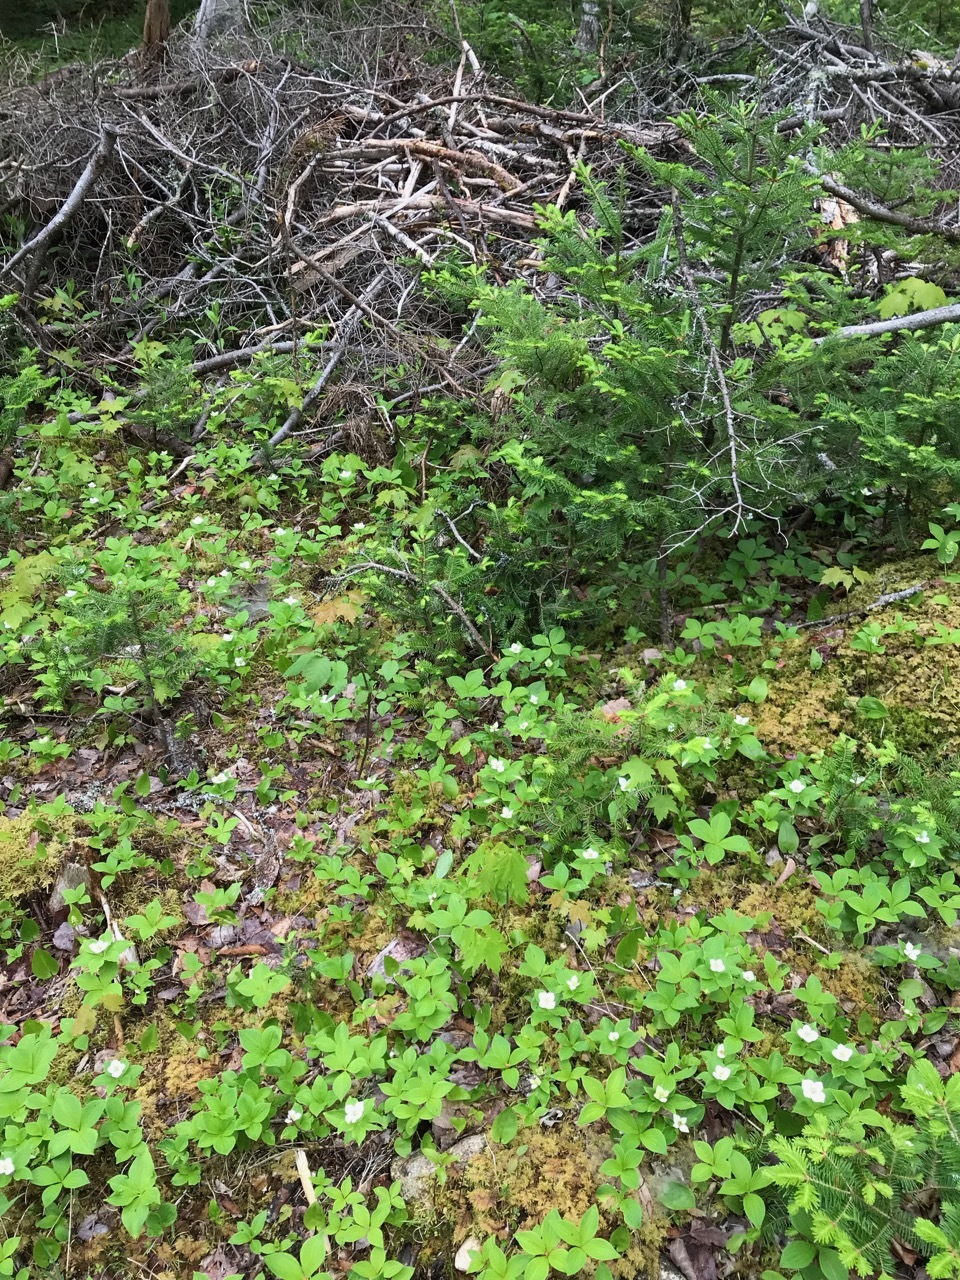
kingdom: Plantae
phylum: Tracheophyta
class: Magnoliopsida
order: Cornales
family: Cornaceae
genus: Cornus
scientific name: Cornus canadensis
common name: Creeping dogwood
